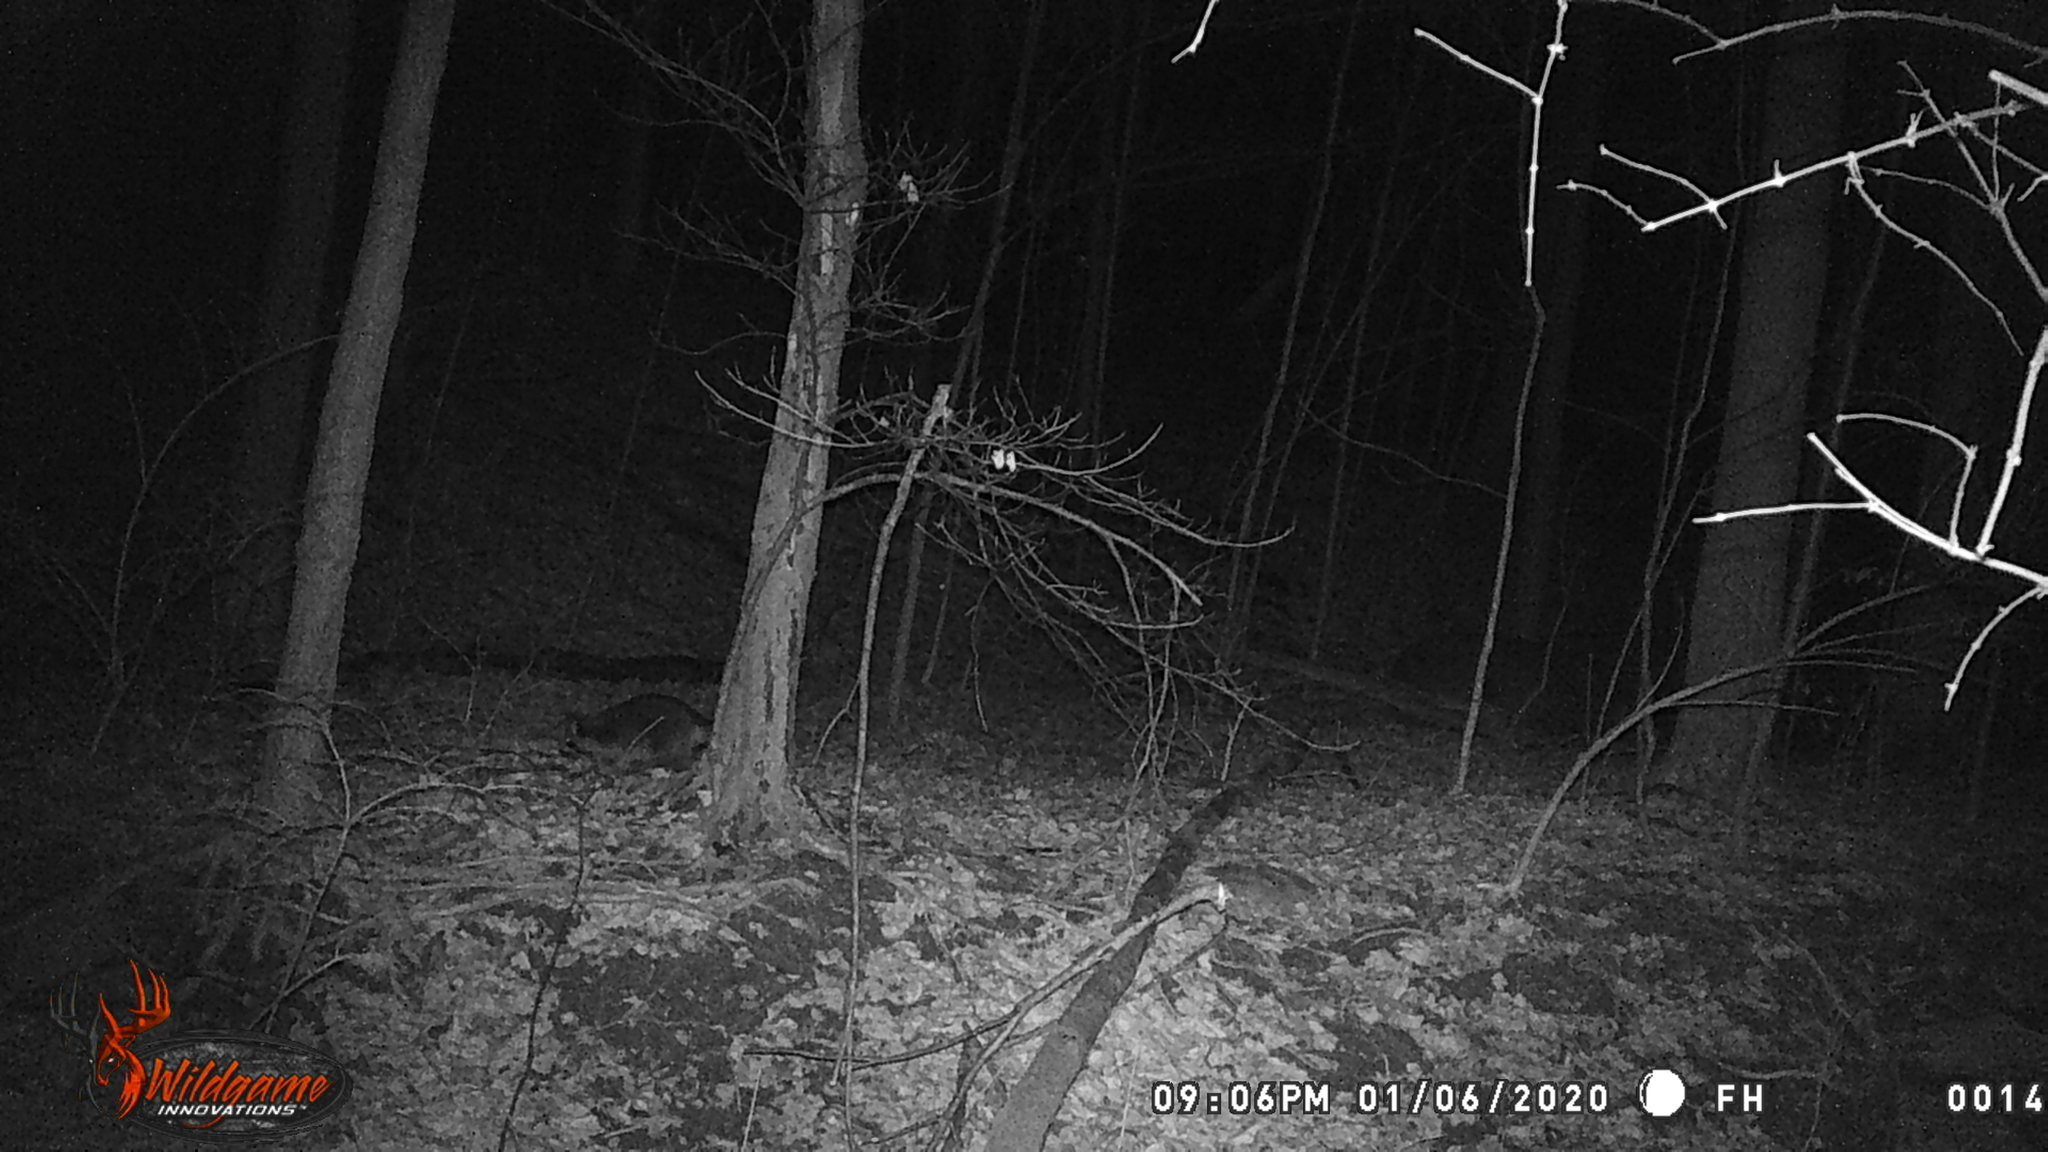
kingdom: Animalia
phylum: Chordata
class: Mammalia
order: Carnivora
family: Procyonidae
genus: Procyon
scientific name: Procyon lotor
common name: Raccoon
